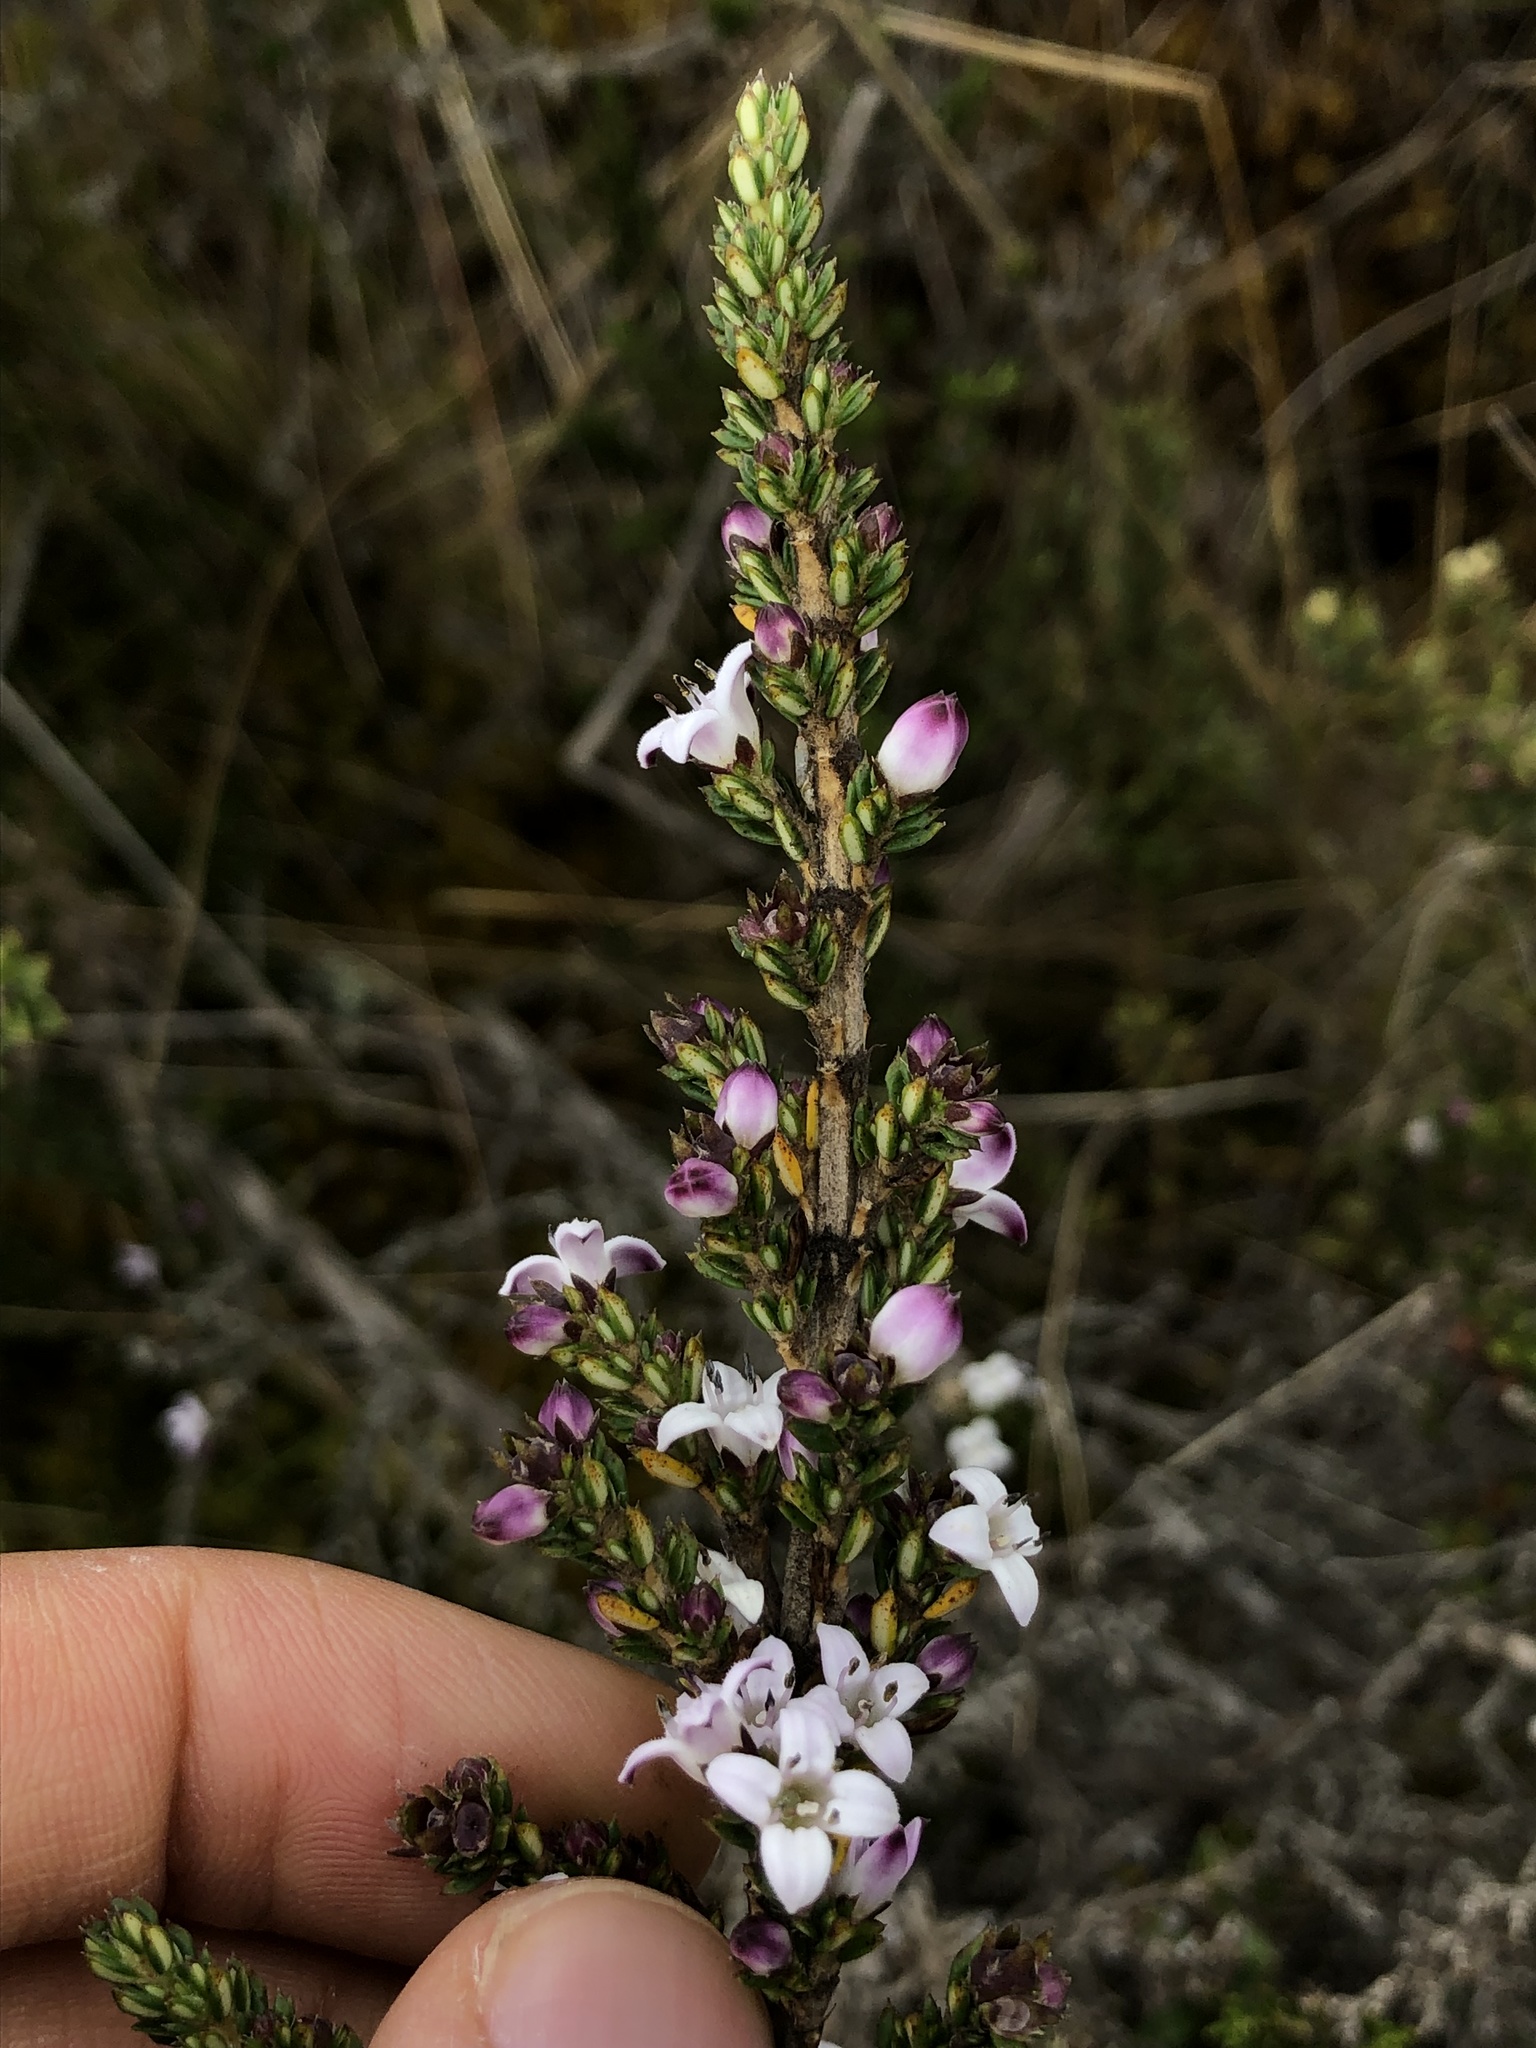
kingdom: Plantae
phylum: Tracheophyta
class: Magnoliopsida
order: Gentianales
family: Rubiaceae
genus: Arcytophyllum
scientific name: Arcytophyllum nitidum
